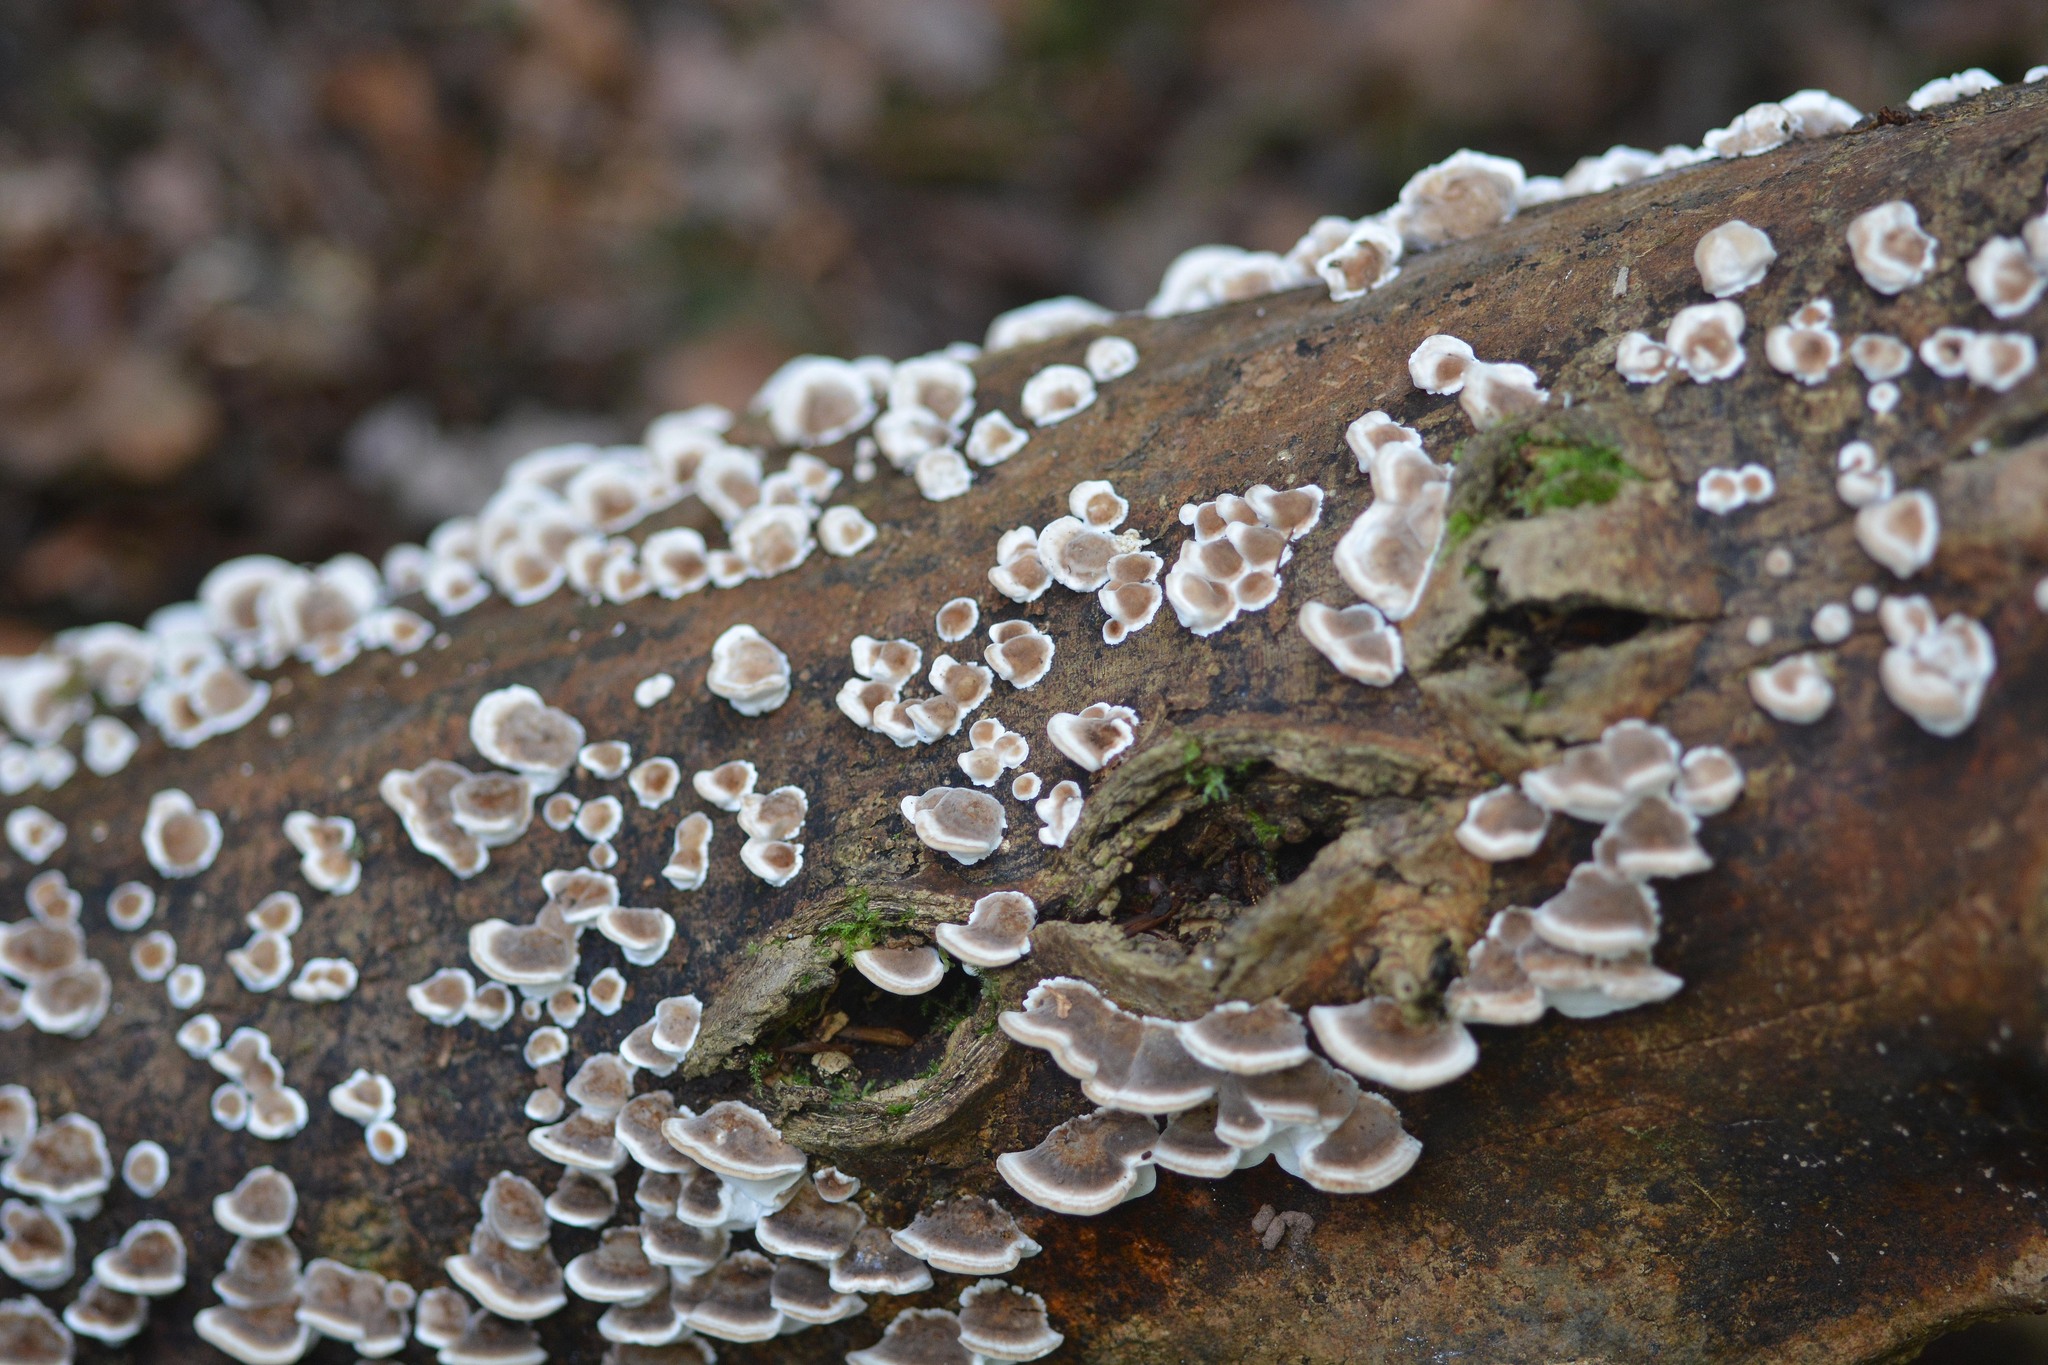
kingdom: Fungi
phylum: Basidiomycota
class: Agaricomycetes
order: Polyporales
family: Phanerochaetaceae
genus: Bjerkandera
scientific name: Bjerkandera adusta
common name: Smoky bracket
